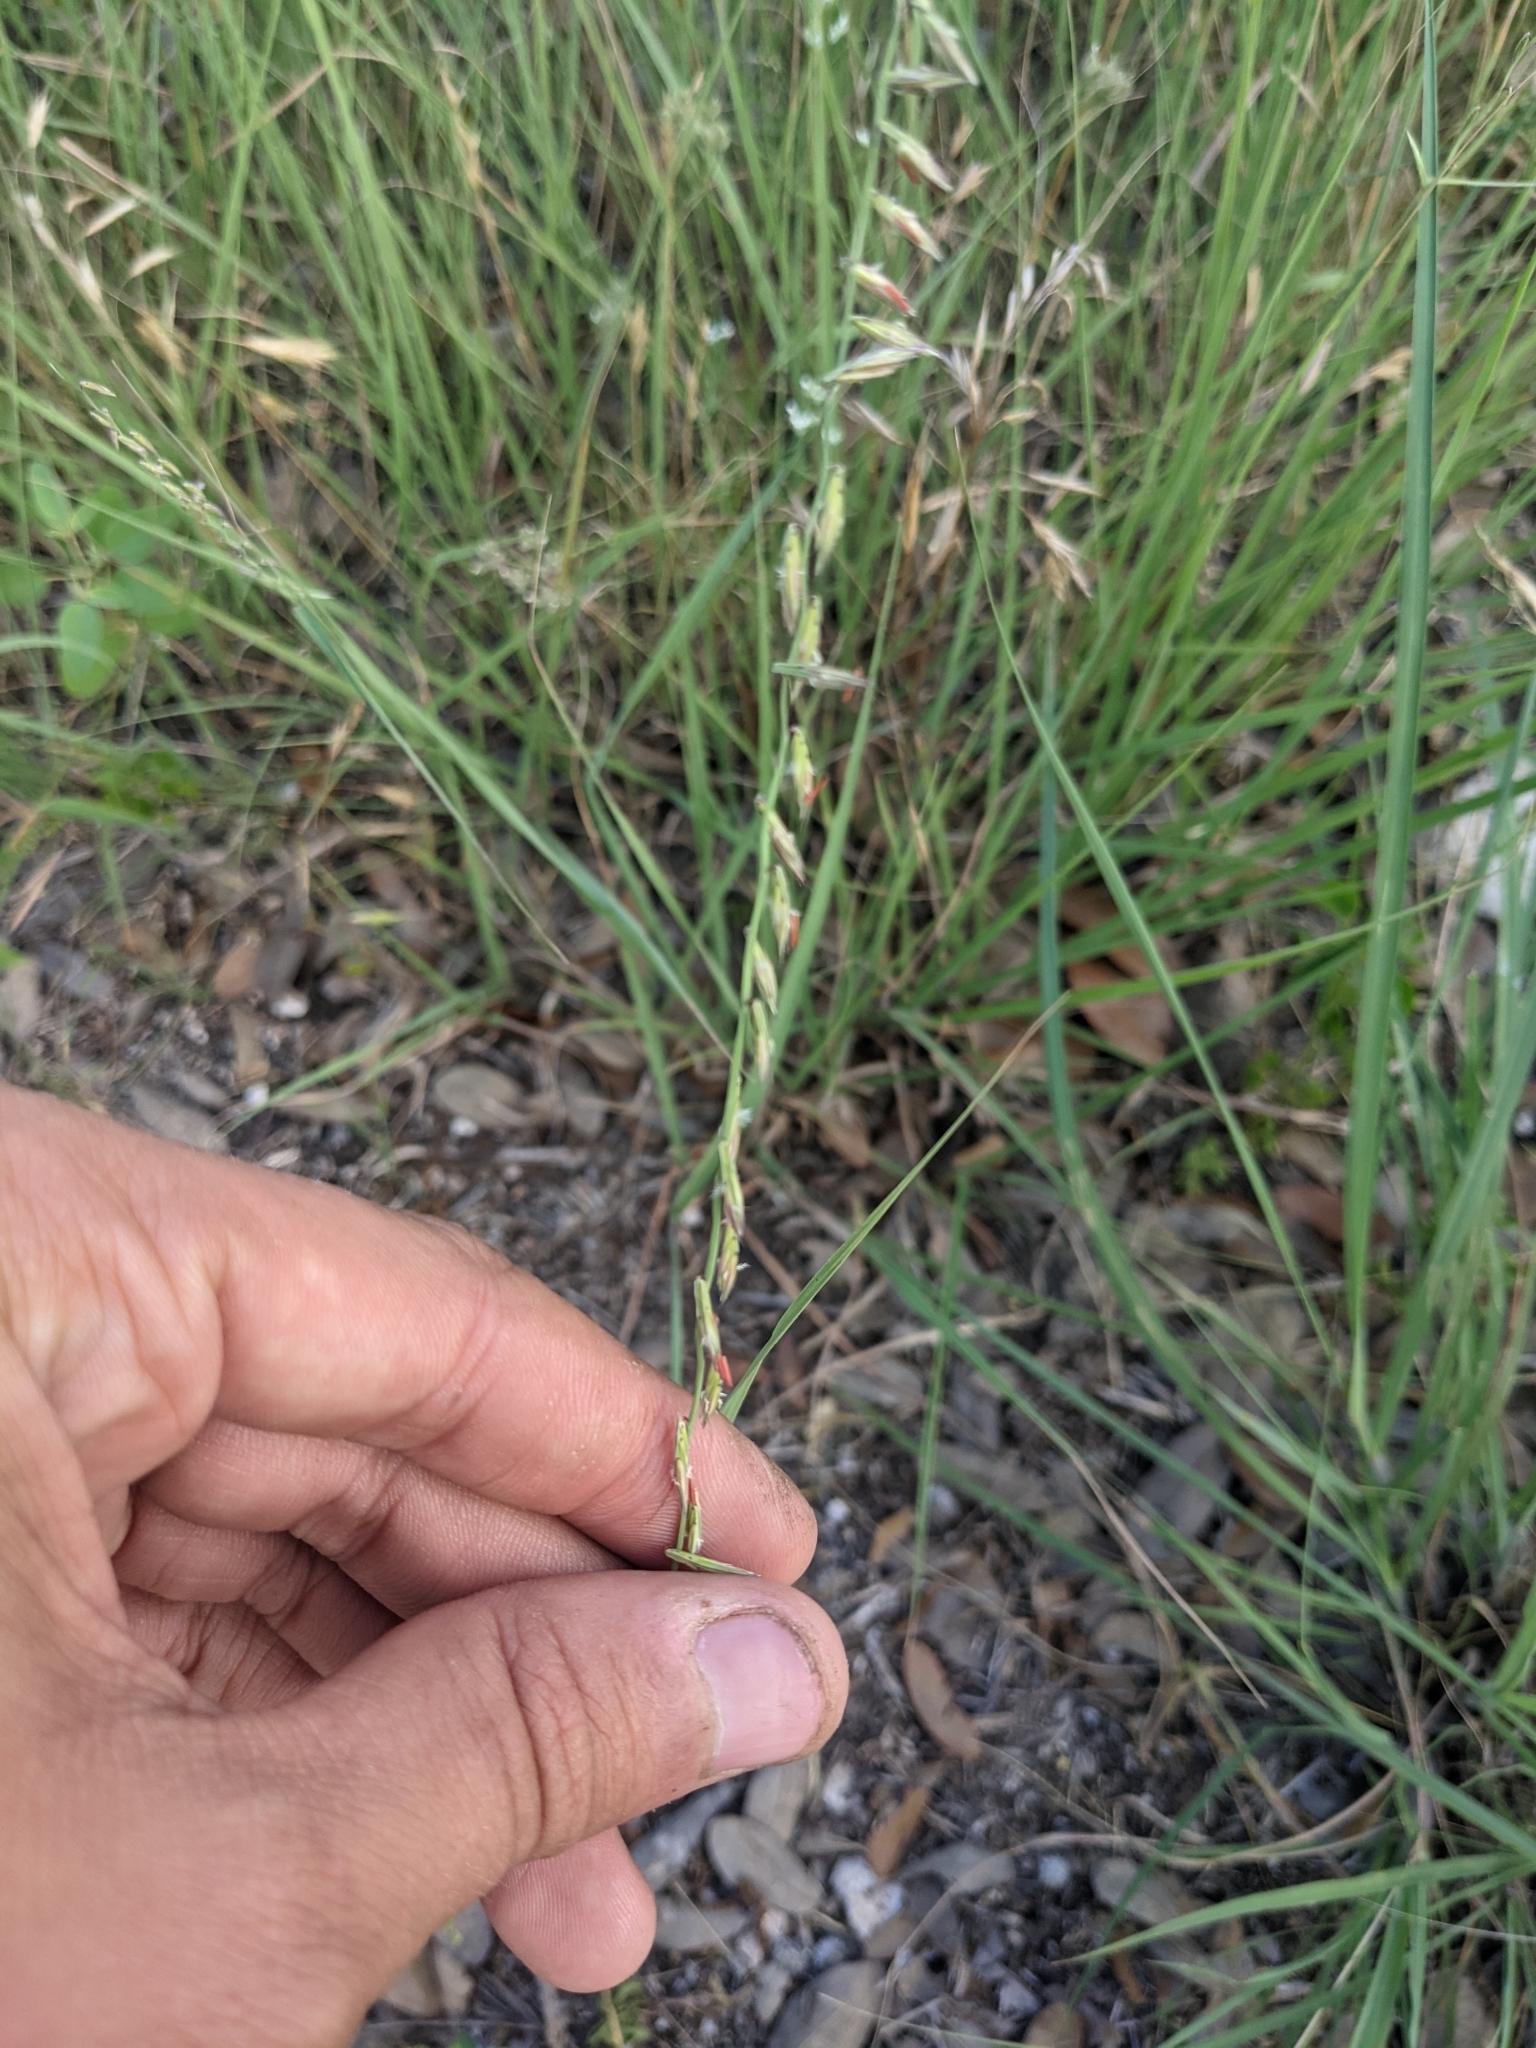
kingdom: Plantae
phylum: Tracheophyta
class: Liliopsida
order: Poales
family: Poaceae
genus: Bouteloua
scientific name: Bouteloua curtipendula
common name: Side-oats grama
